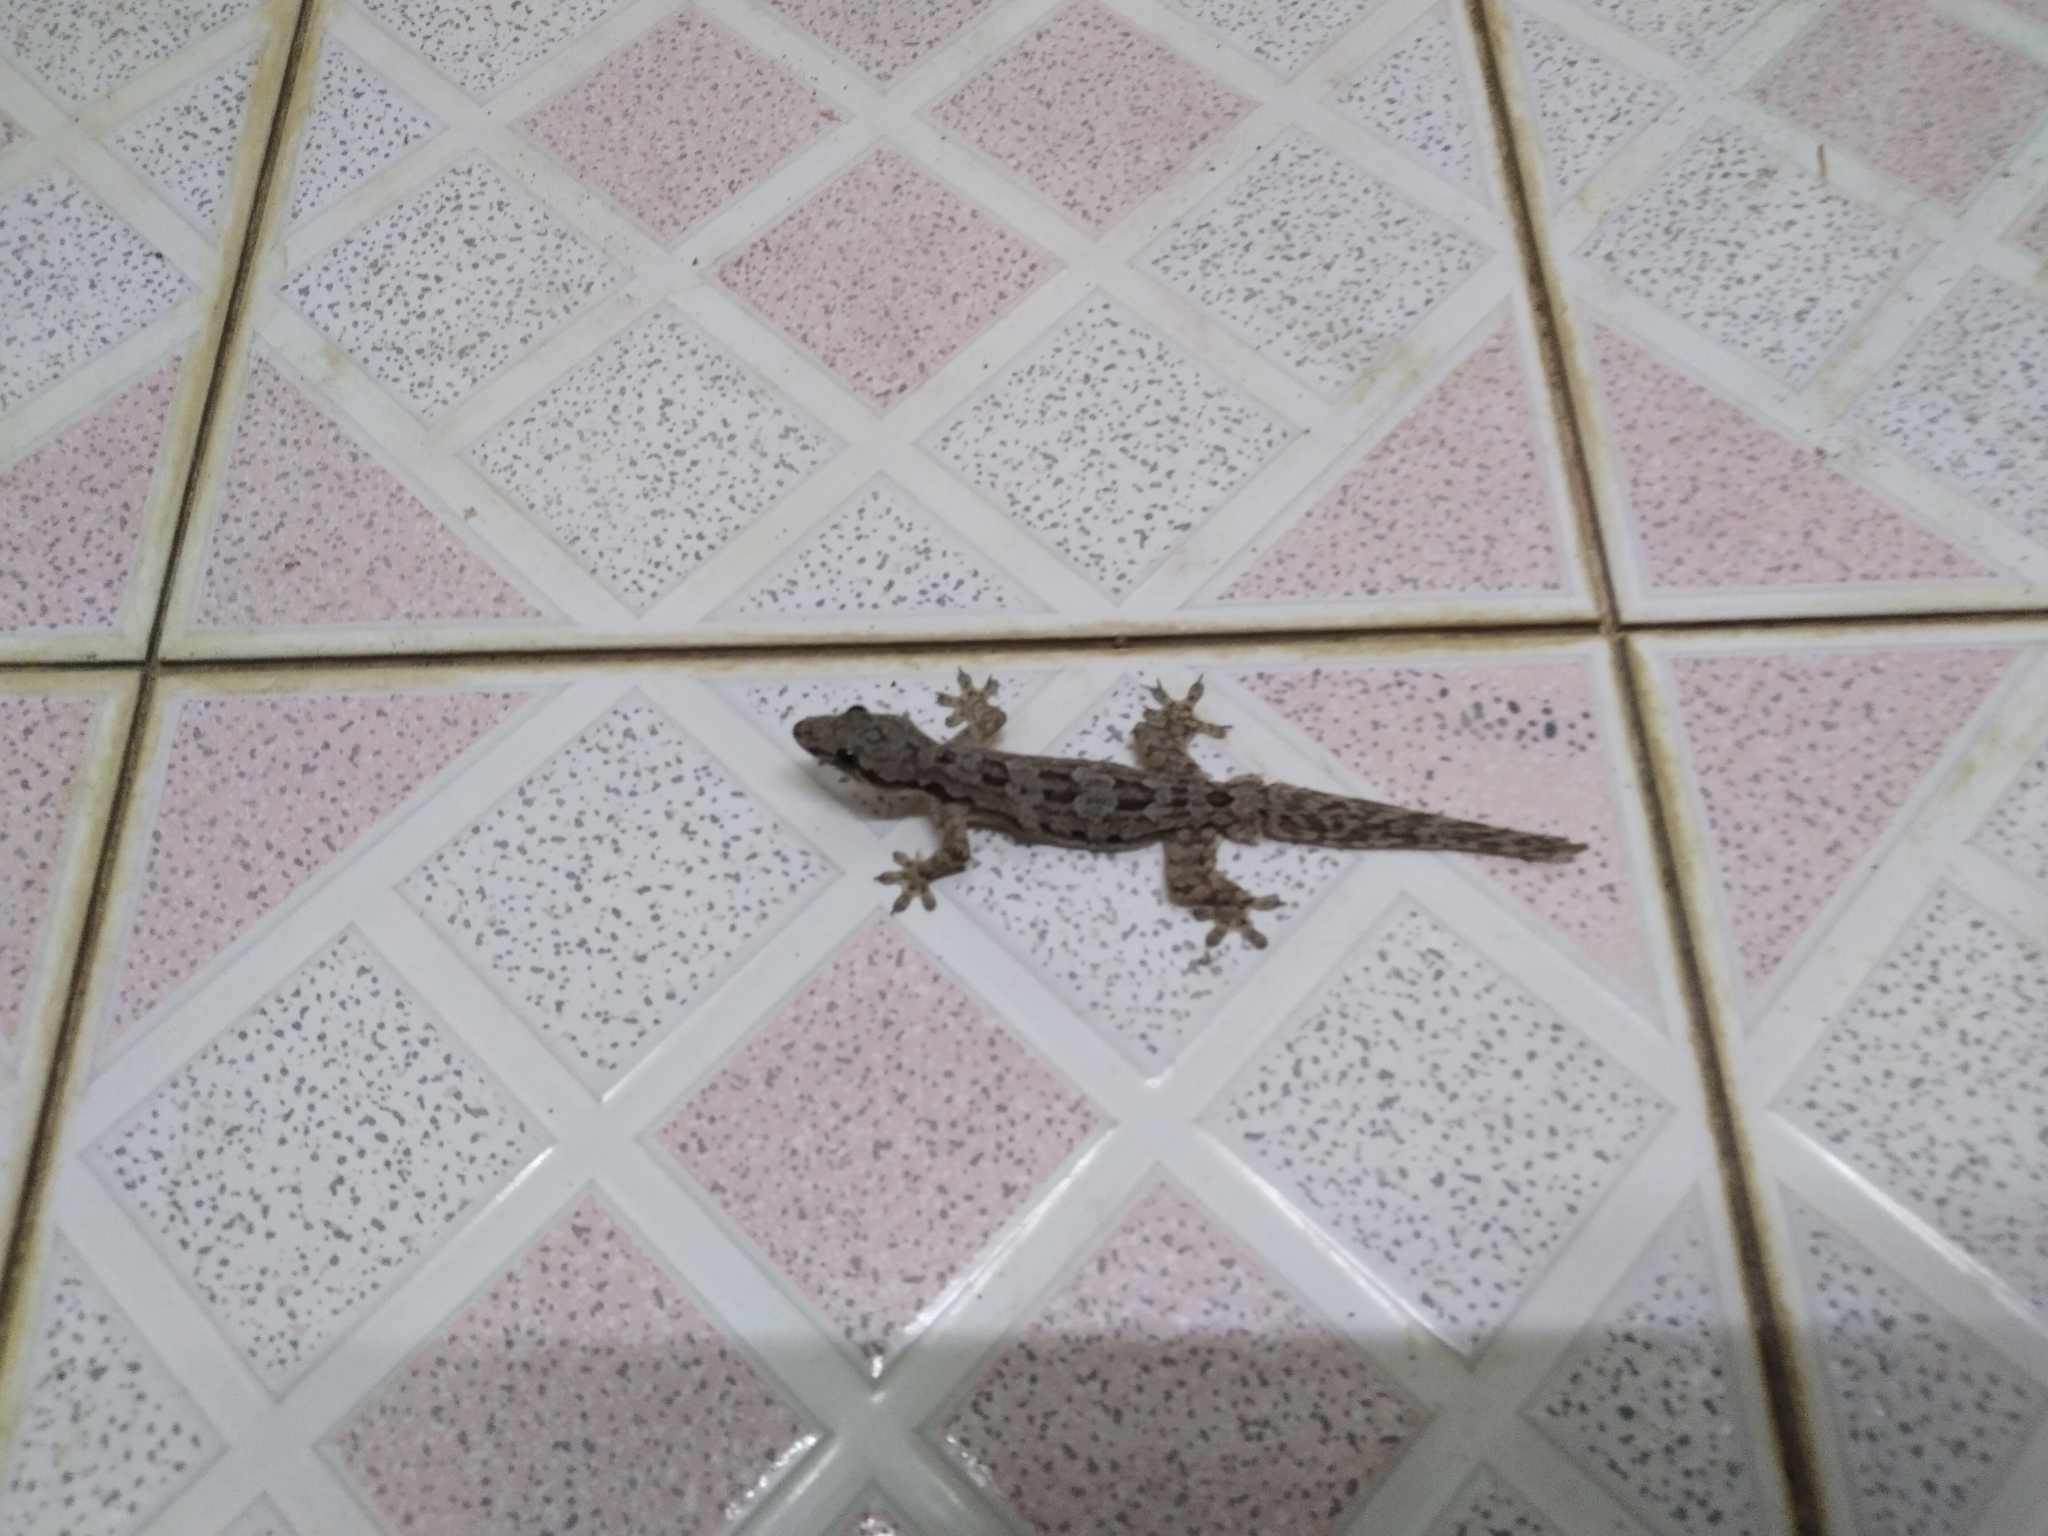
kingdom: Animalia
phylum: Chordata
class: Squamata
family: Gekkonidae
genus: Hemidactylus
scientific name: Hemidactylus platyurus
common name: Flat-tailed house gecko
